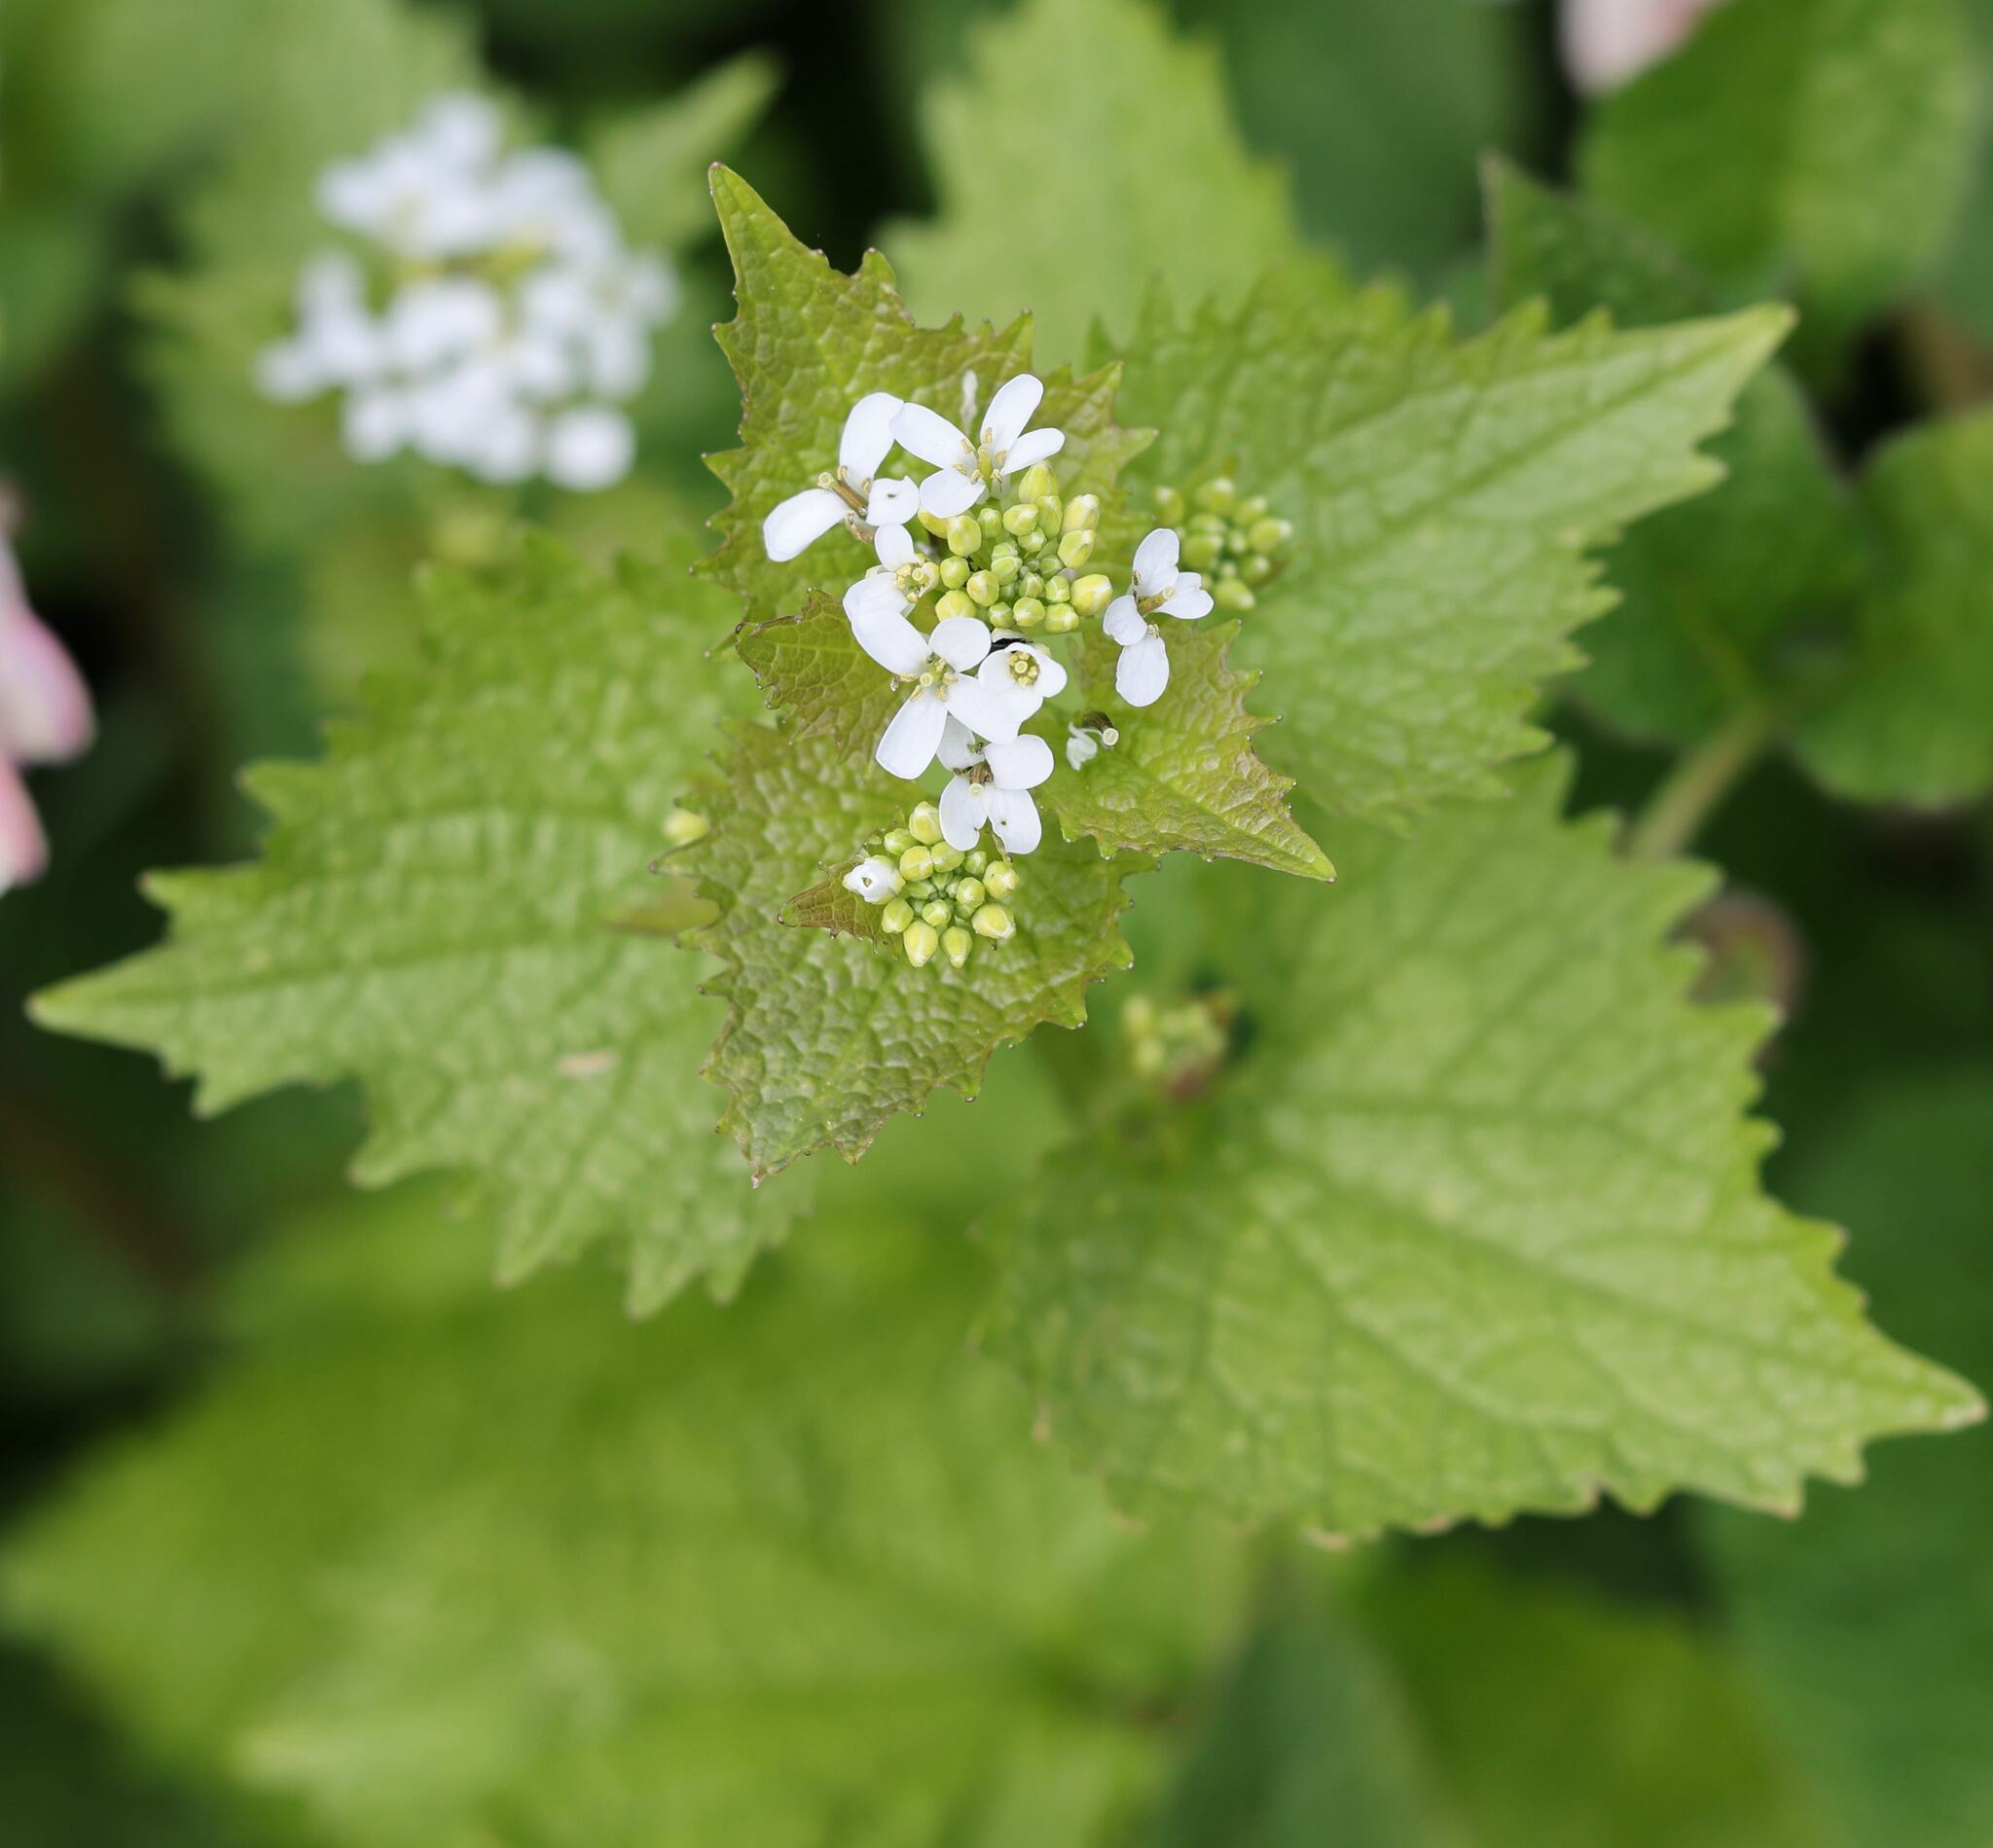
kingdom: Plantae
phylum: Tracheophyta
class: Magnoliopsida
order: Brassicales
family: Brassicaceae
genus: Alliaria
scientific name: Alliaria petiolata
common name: Garlic mustard
